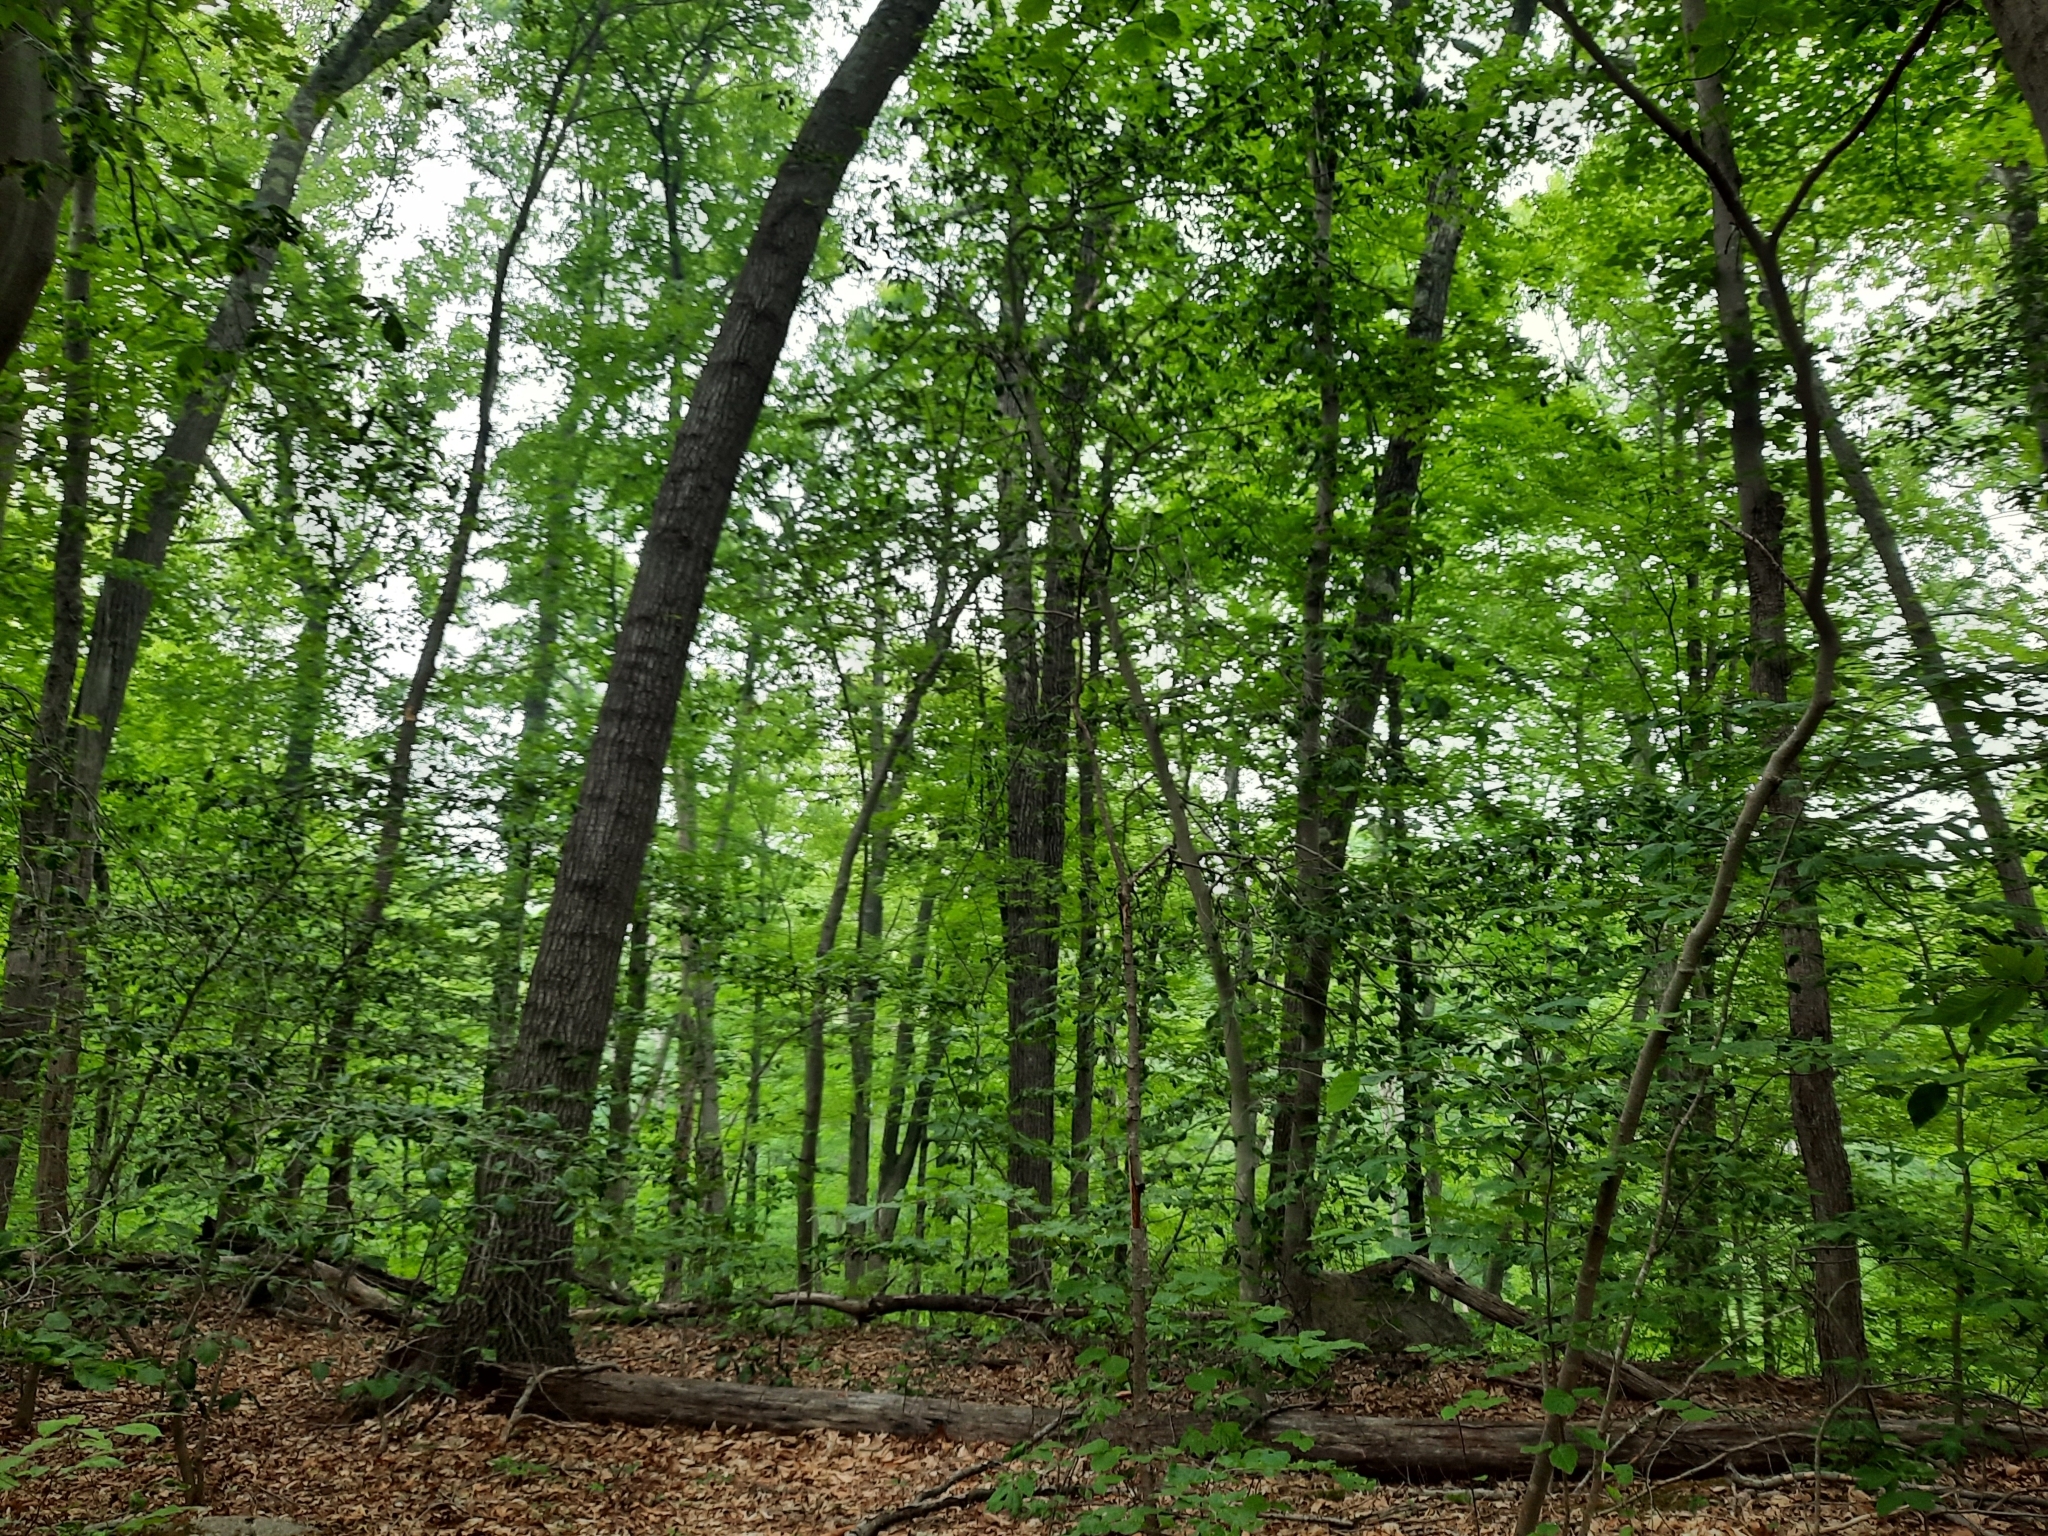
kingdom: Animalia
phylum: Nematoda
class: Chromadorea
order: Rhabditida
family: Anguinidae
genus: Litylenchus
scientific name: Litylenchus crenatae
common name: Beech leaf disease
